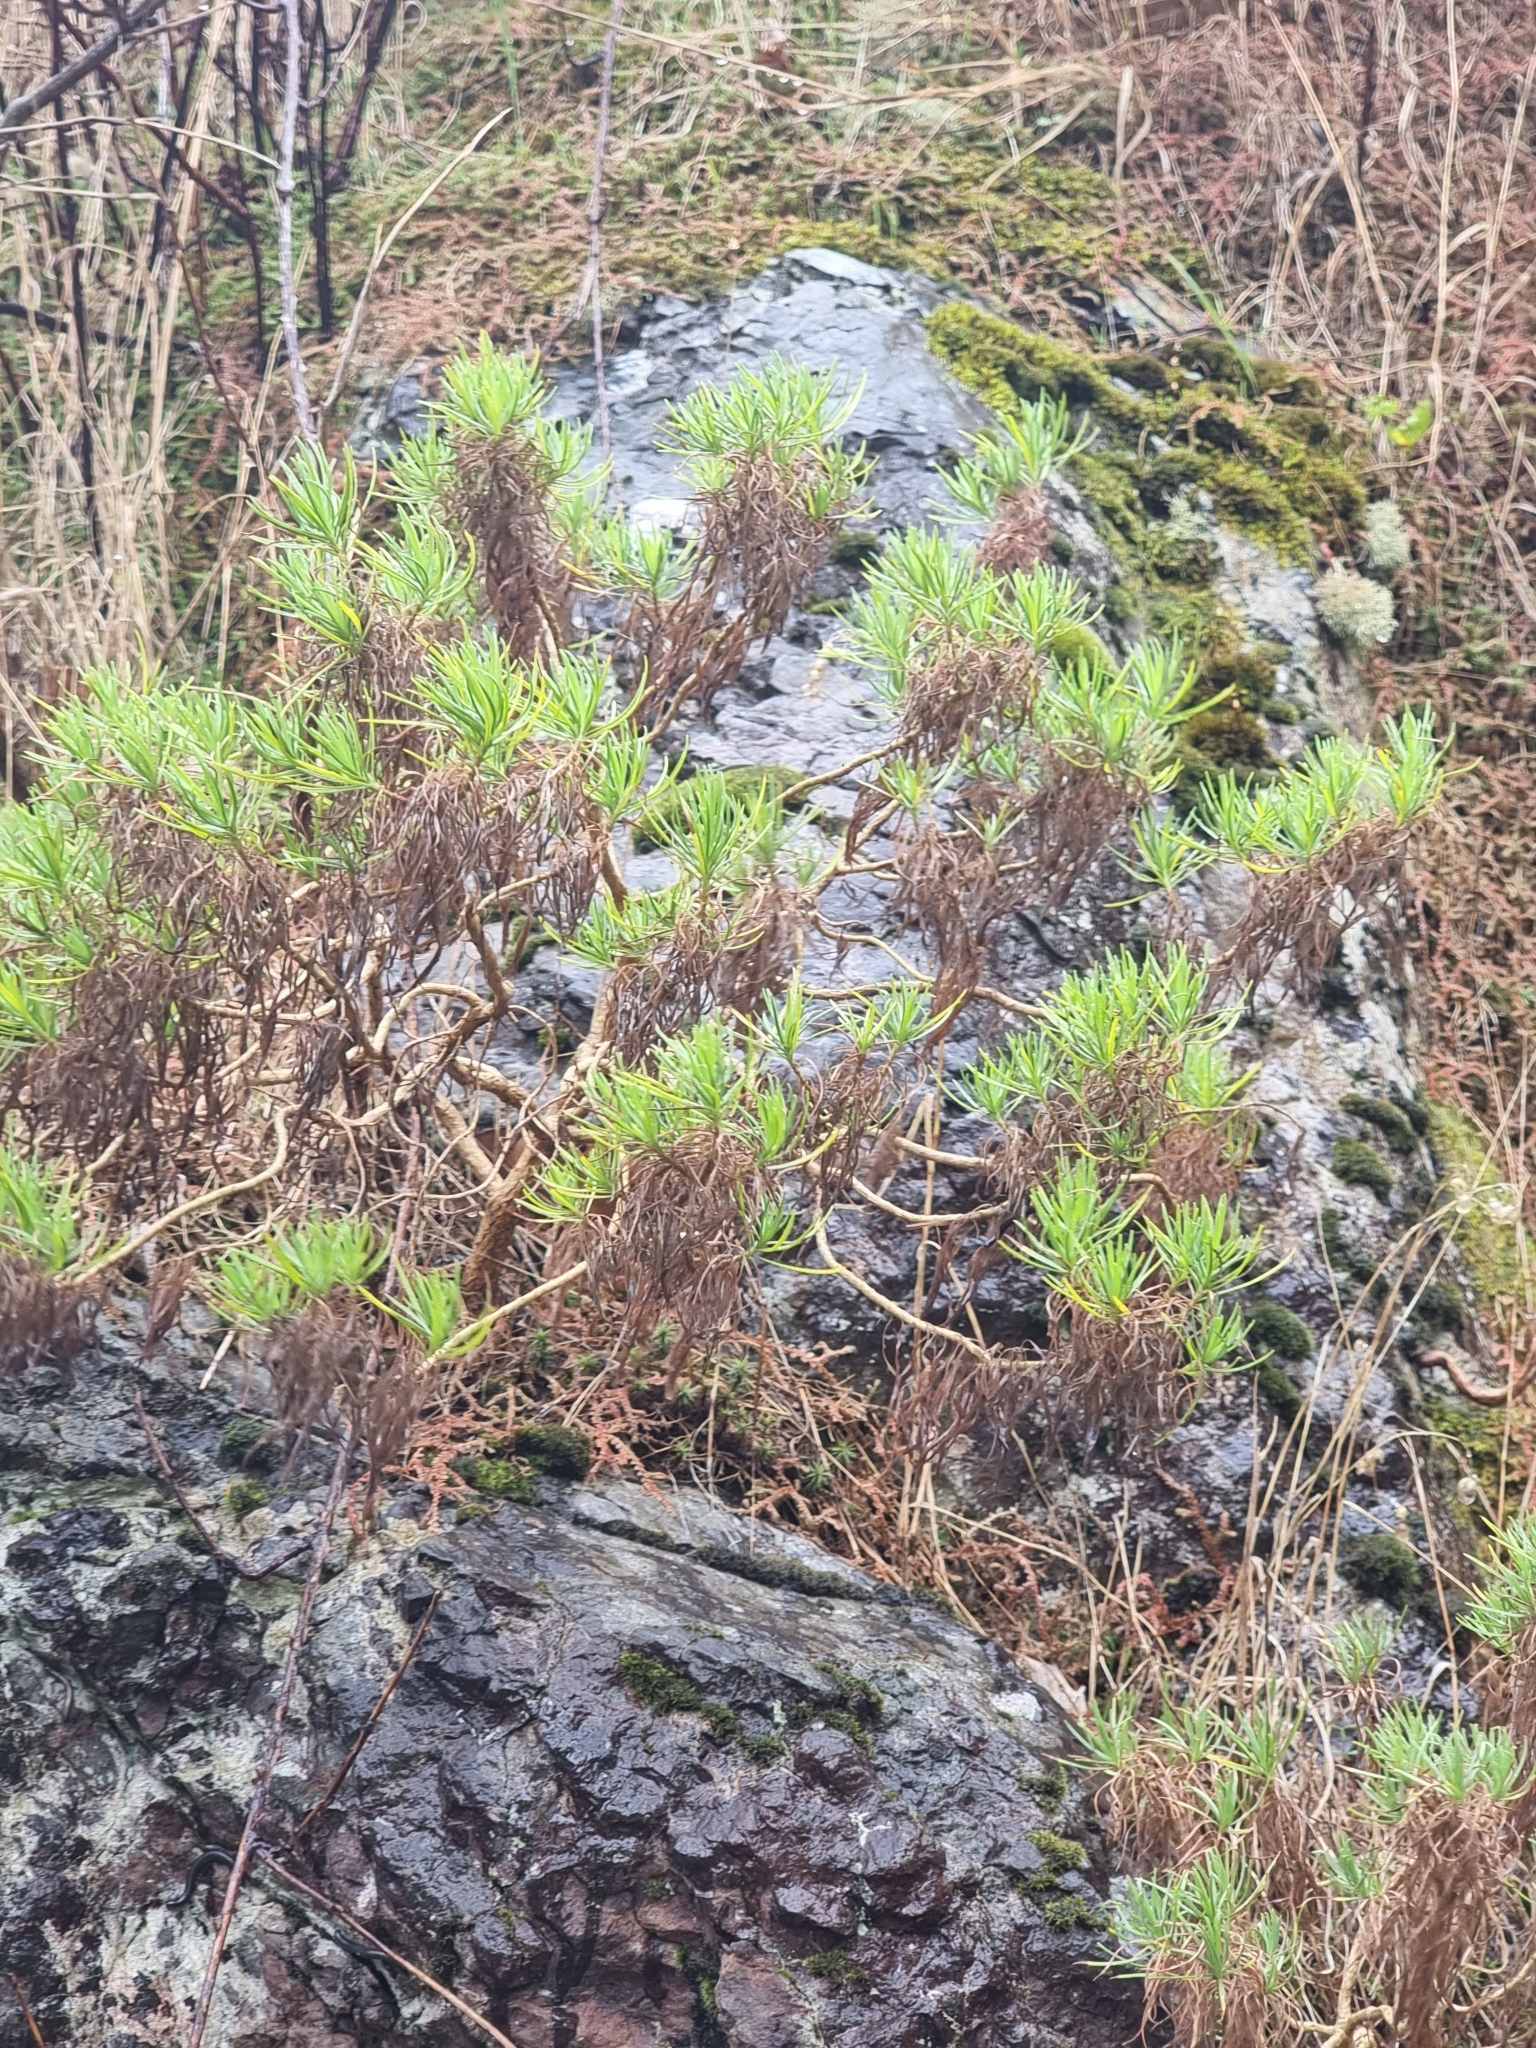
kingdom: Plantae
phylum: Tracheophyta
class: Magnoliopsida
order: Lamiales
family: Plantaginaceae
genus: Plantago
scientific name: Plantago arborescens
